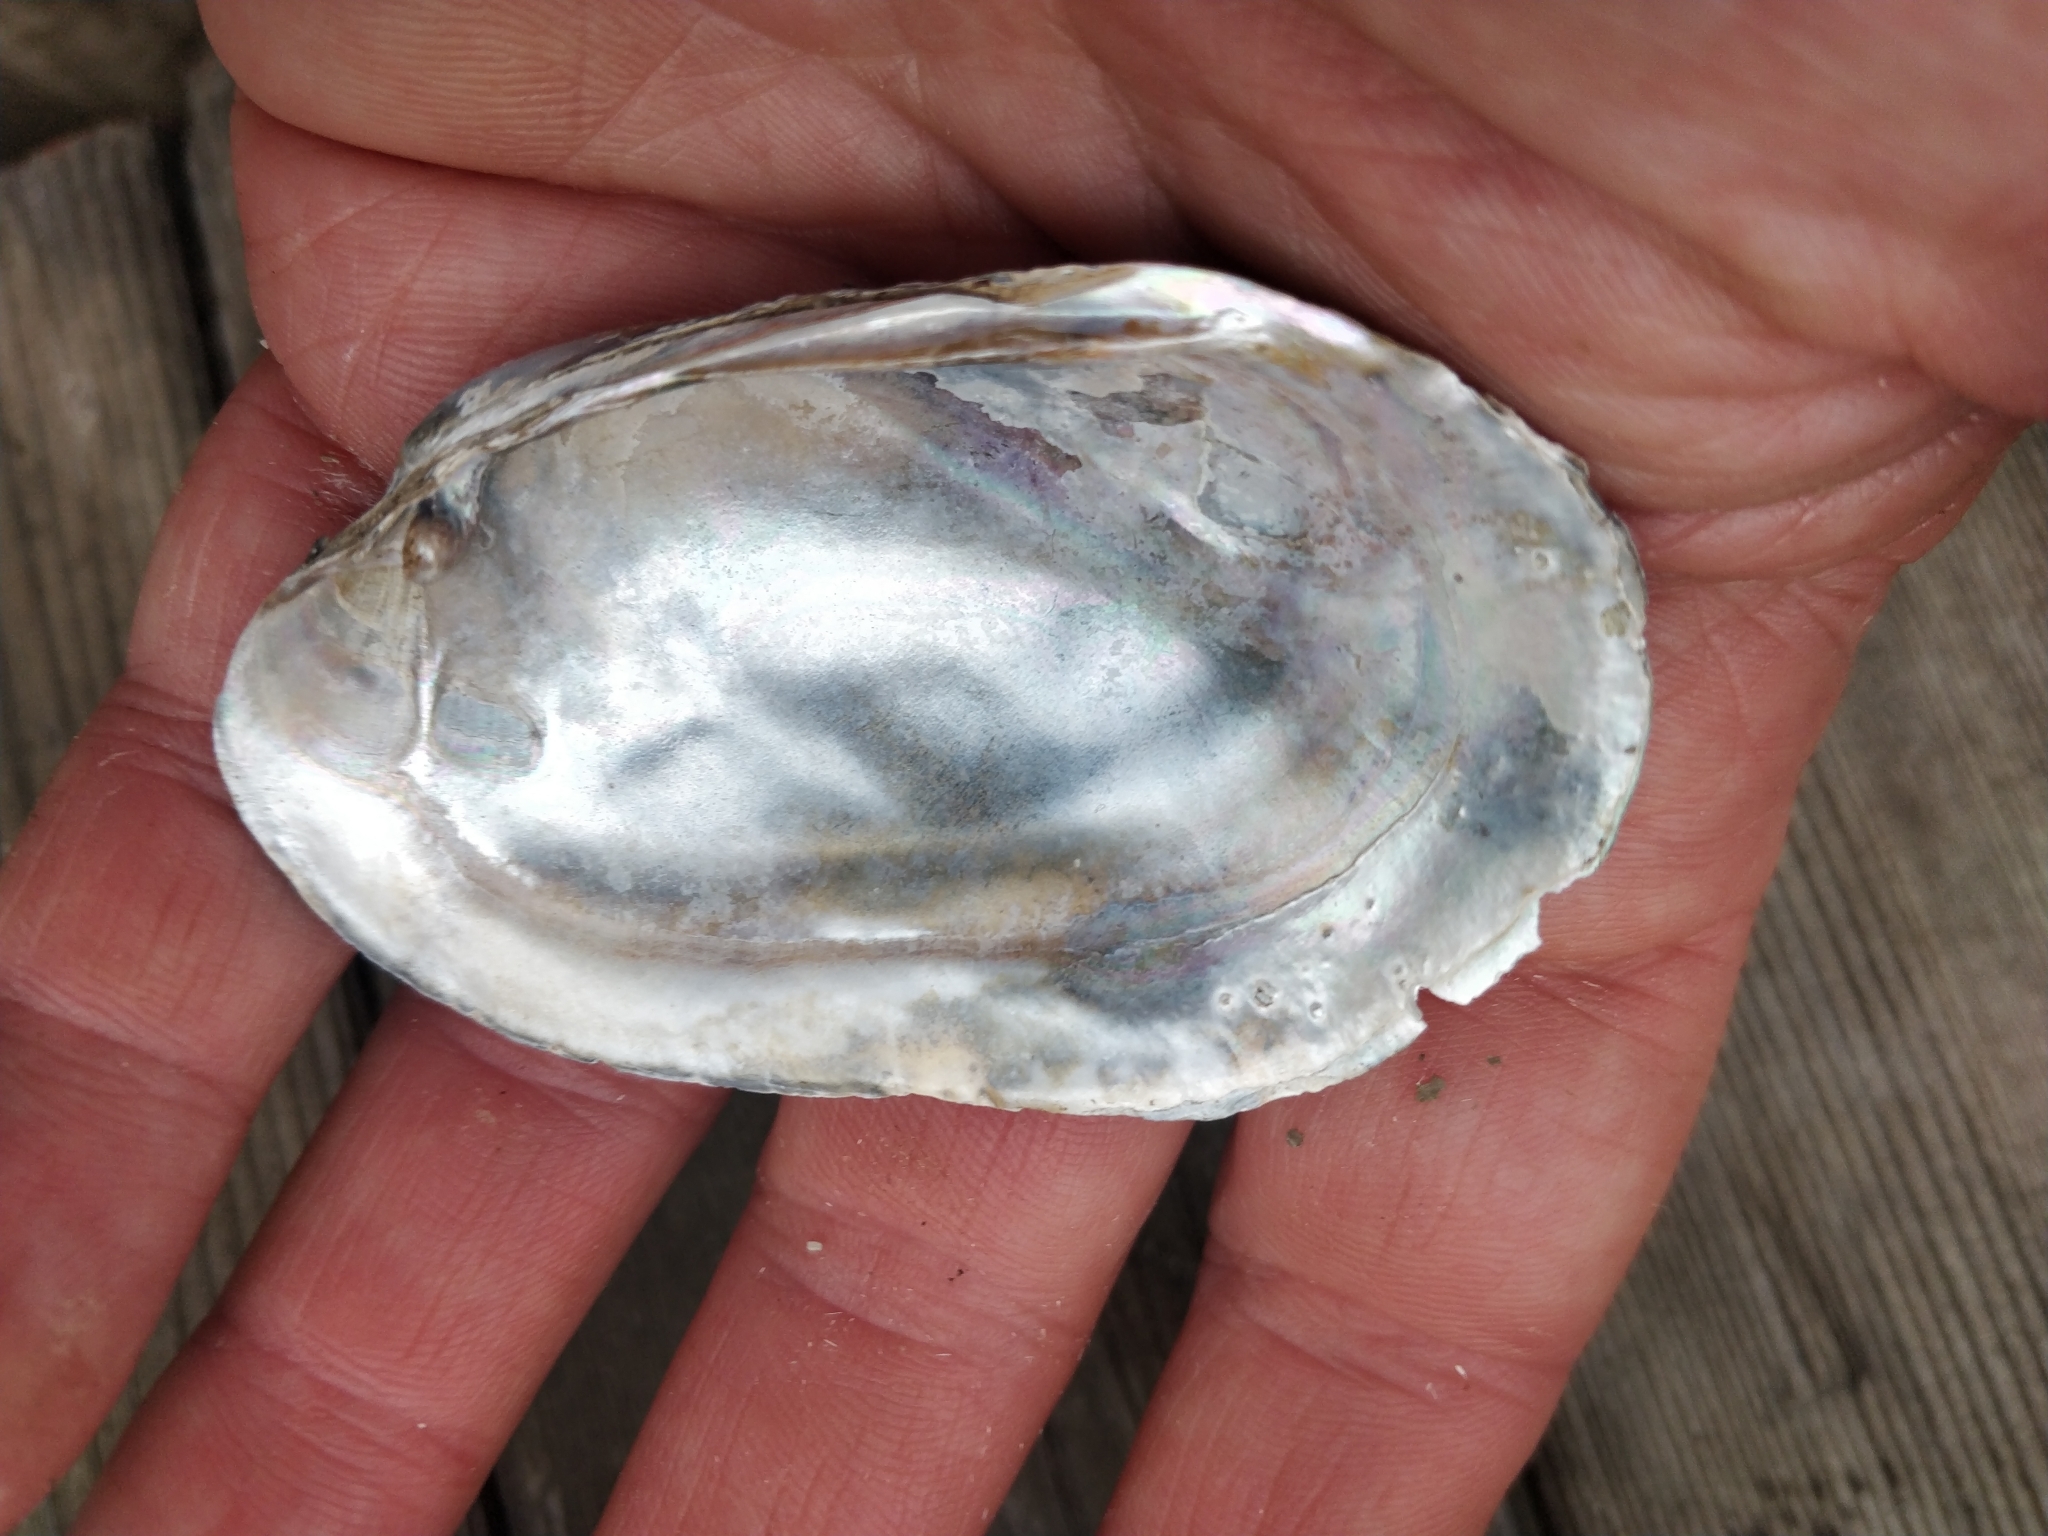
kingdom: Animalia
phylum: Mollusca
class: Bivalvia
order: Unionida
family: Unionidae
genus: Lampsilis
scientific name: Lampsilis siliquoidea
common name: Fatmucket
